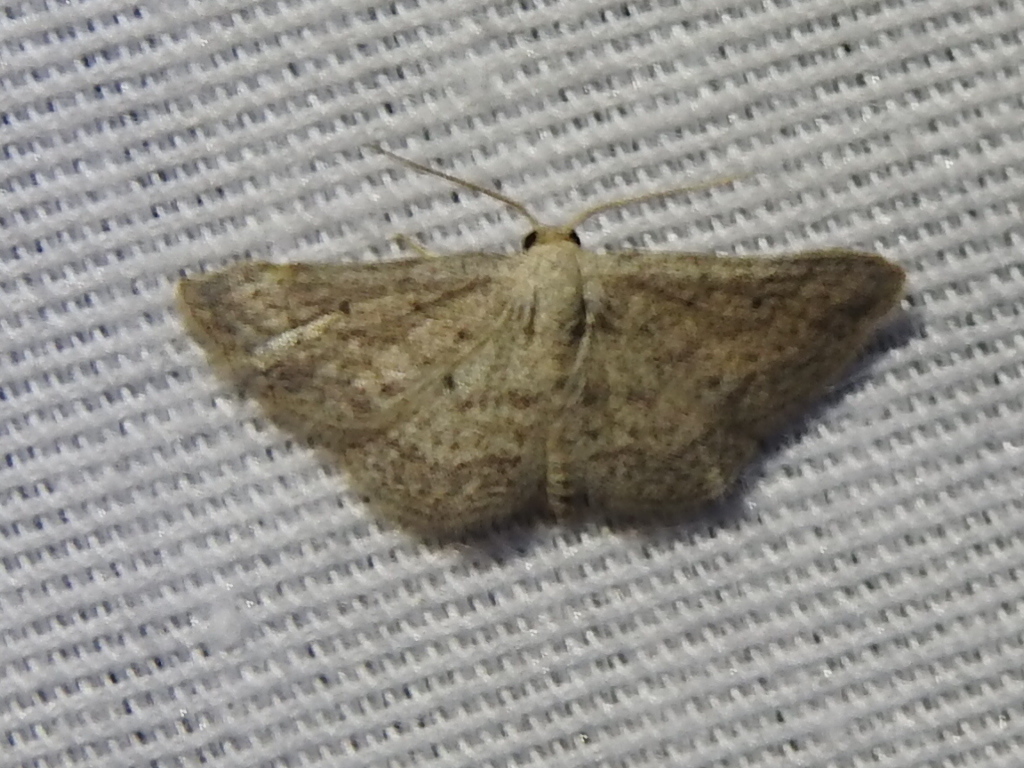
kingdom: Animalia
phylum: Arthropoda
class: Insecta
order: Lepidoptera
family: Geometridae
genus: Lobocleta
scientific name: Lobocleta ossularia
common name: Drab brown wave
